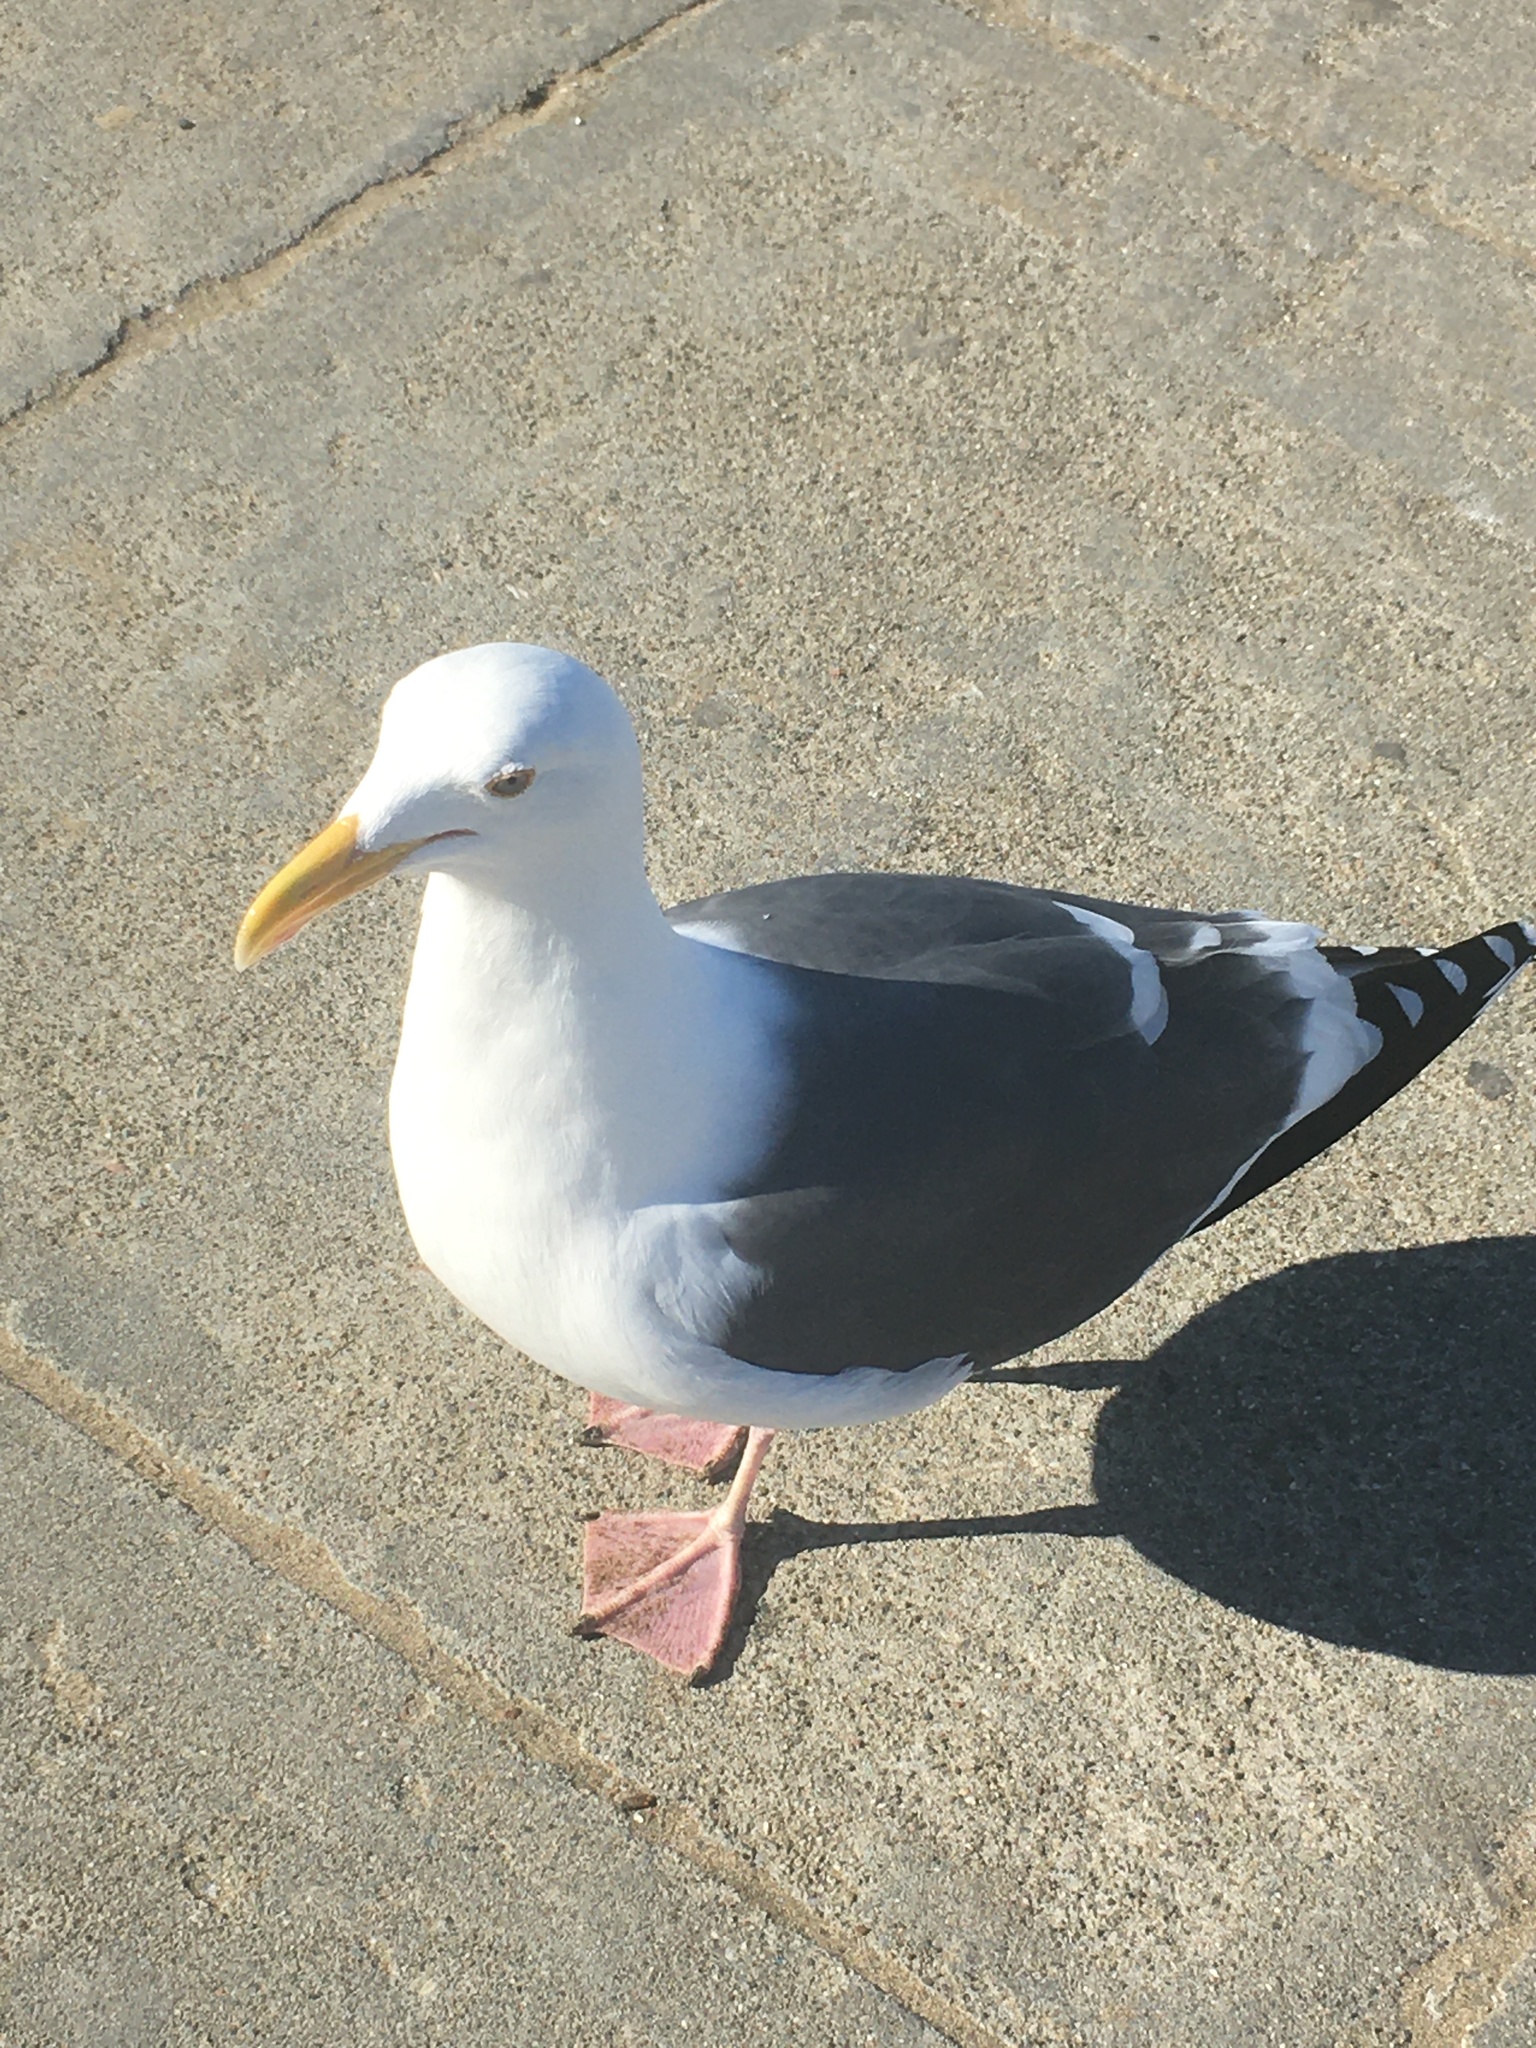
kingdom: Animalia
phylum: Chordata
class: Aves
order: Charadriiformes
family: Laridae
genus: Larus
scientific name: Larus occidentalis
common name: Western gull
